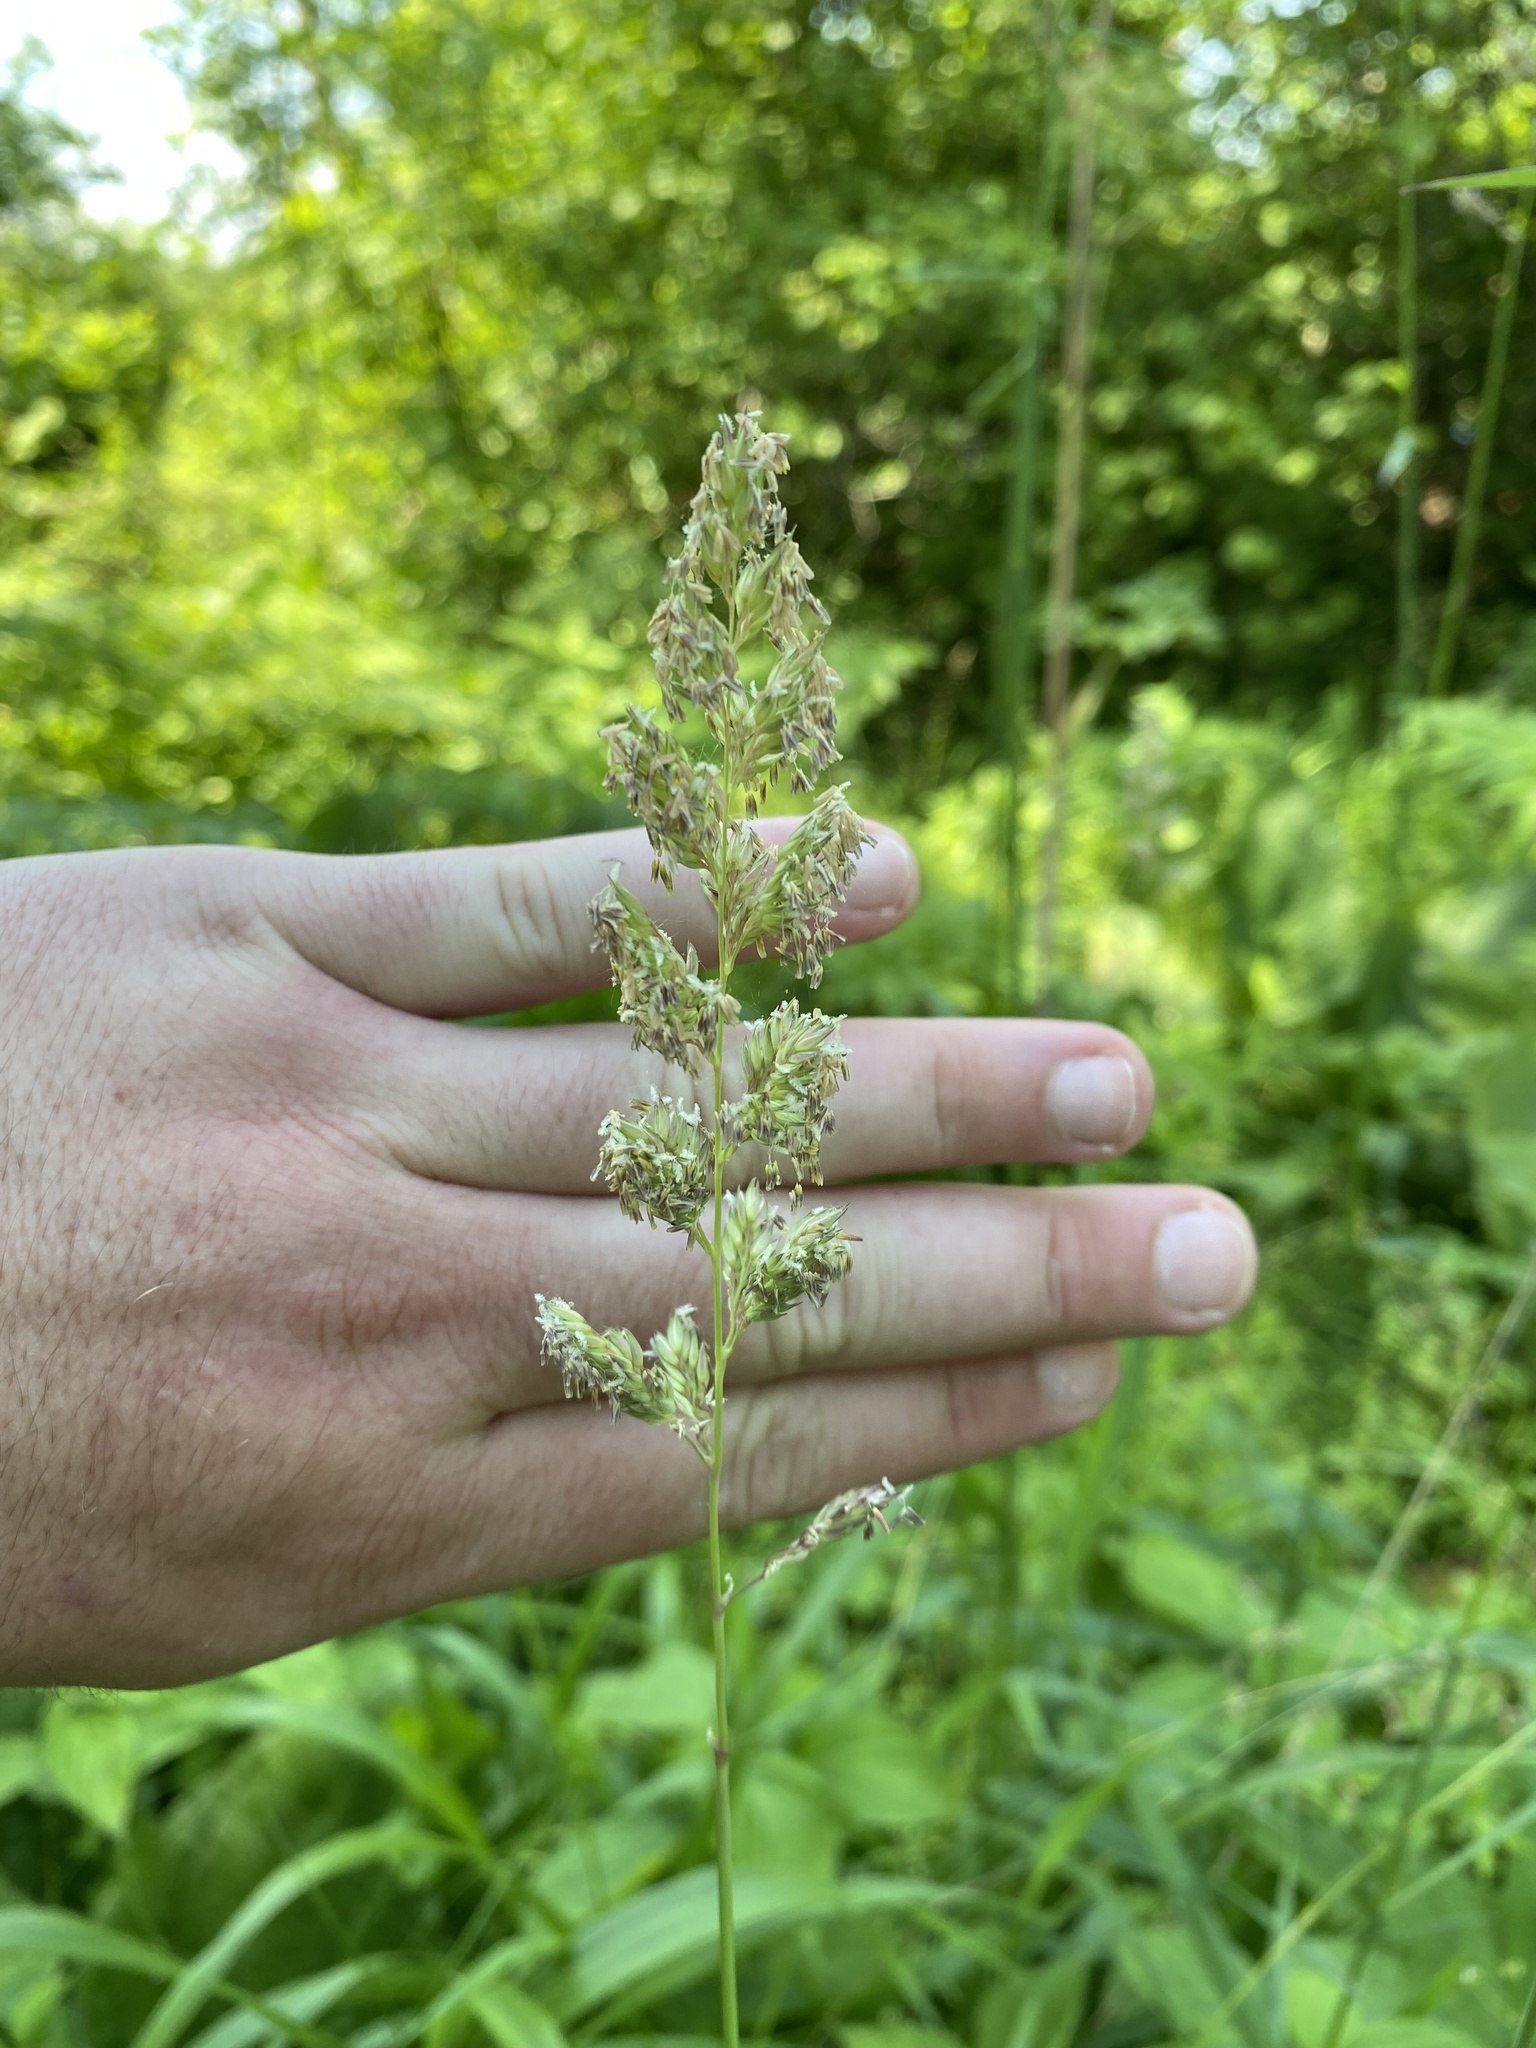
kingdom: Plantae
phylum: Tracheophyta
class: Liliopsida
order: Poales
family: Poaceae
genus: Phalaris
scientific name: Phalaris arundinacea
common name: Reed canary-grass
